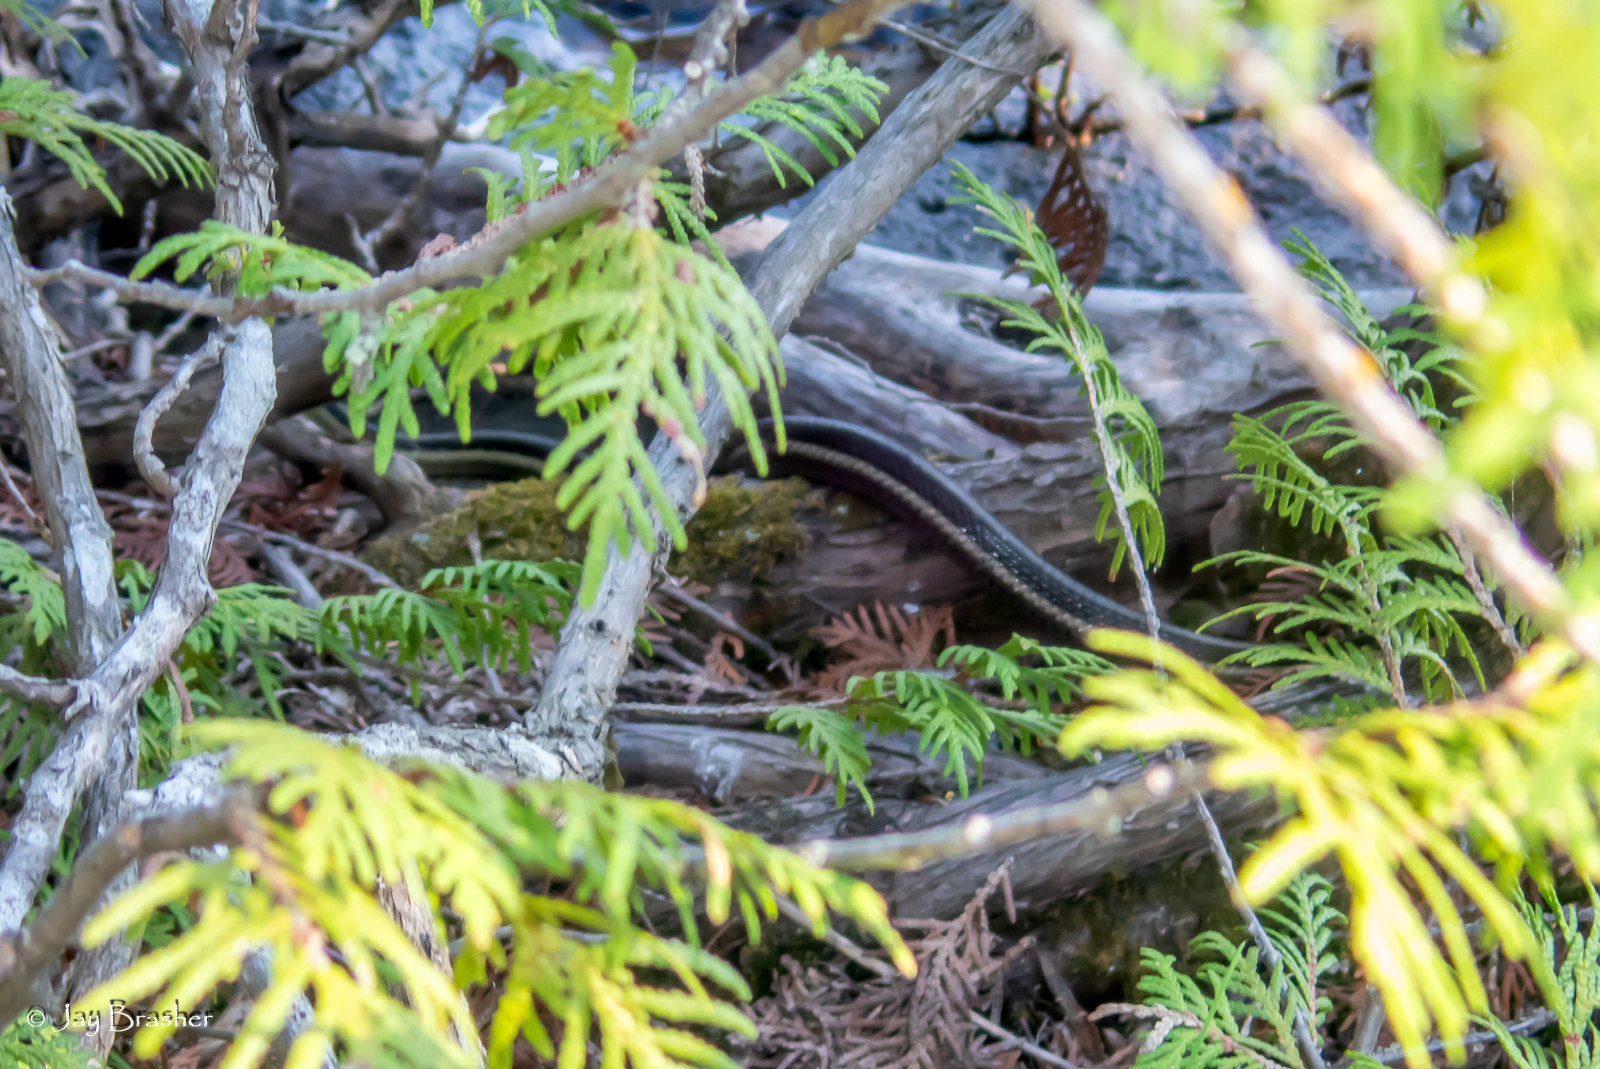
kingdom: Animalia
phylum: Chordata
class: Squamata
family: Colubridae
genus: Thamnophis
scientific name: Thamnophis sirtalis
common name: Common garter snake
